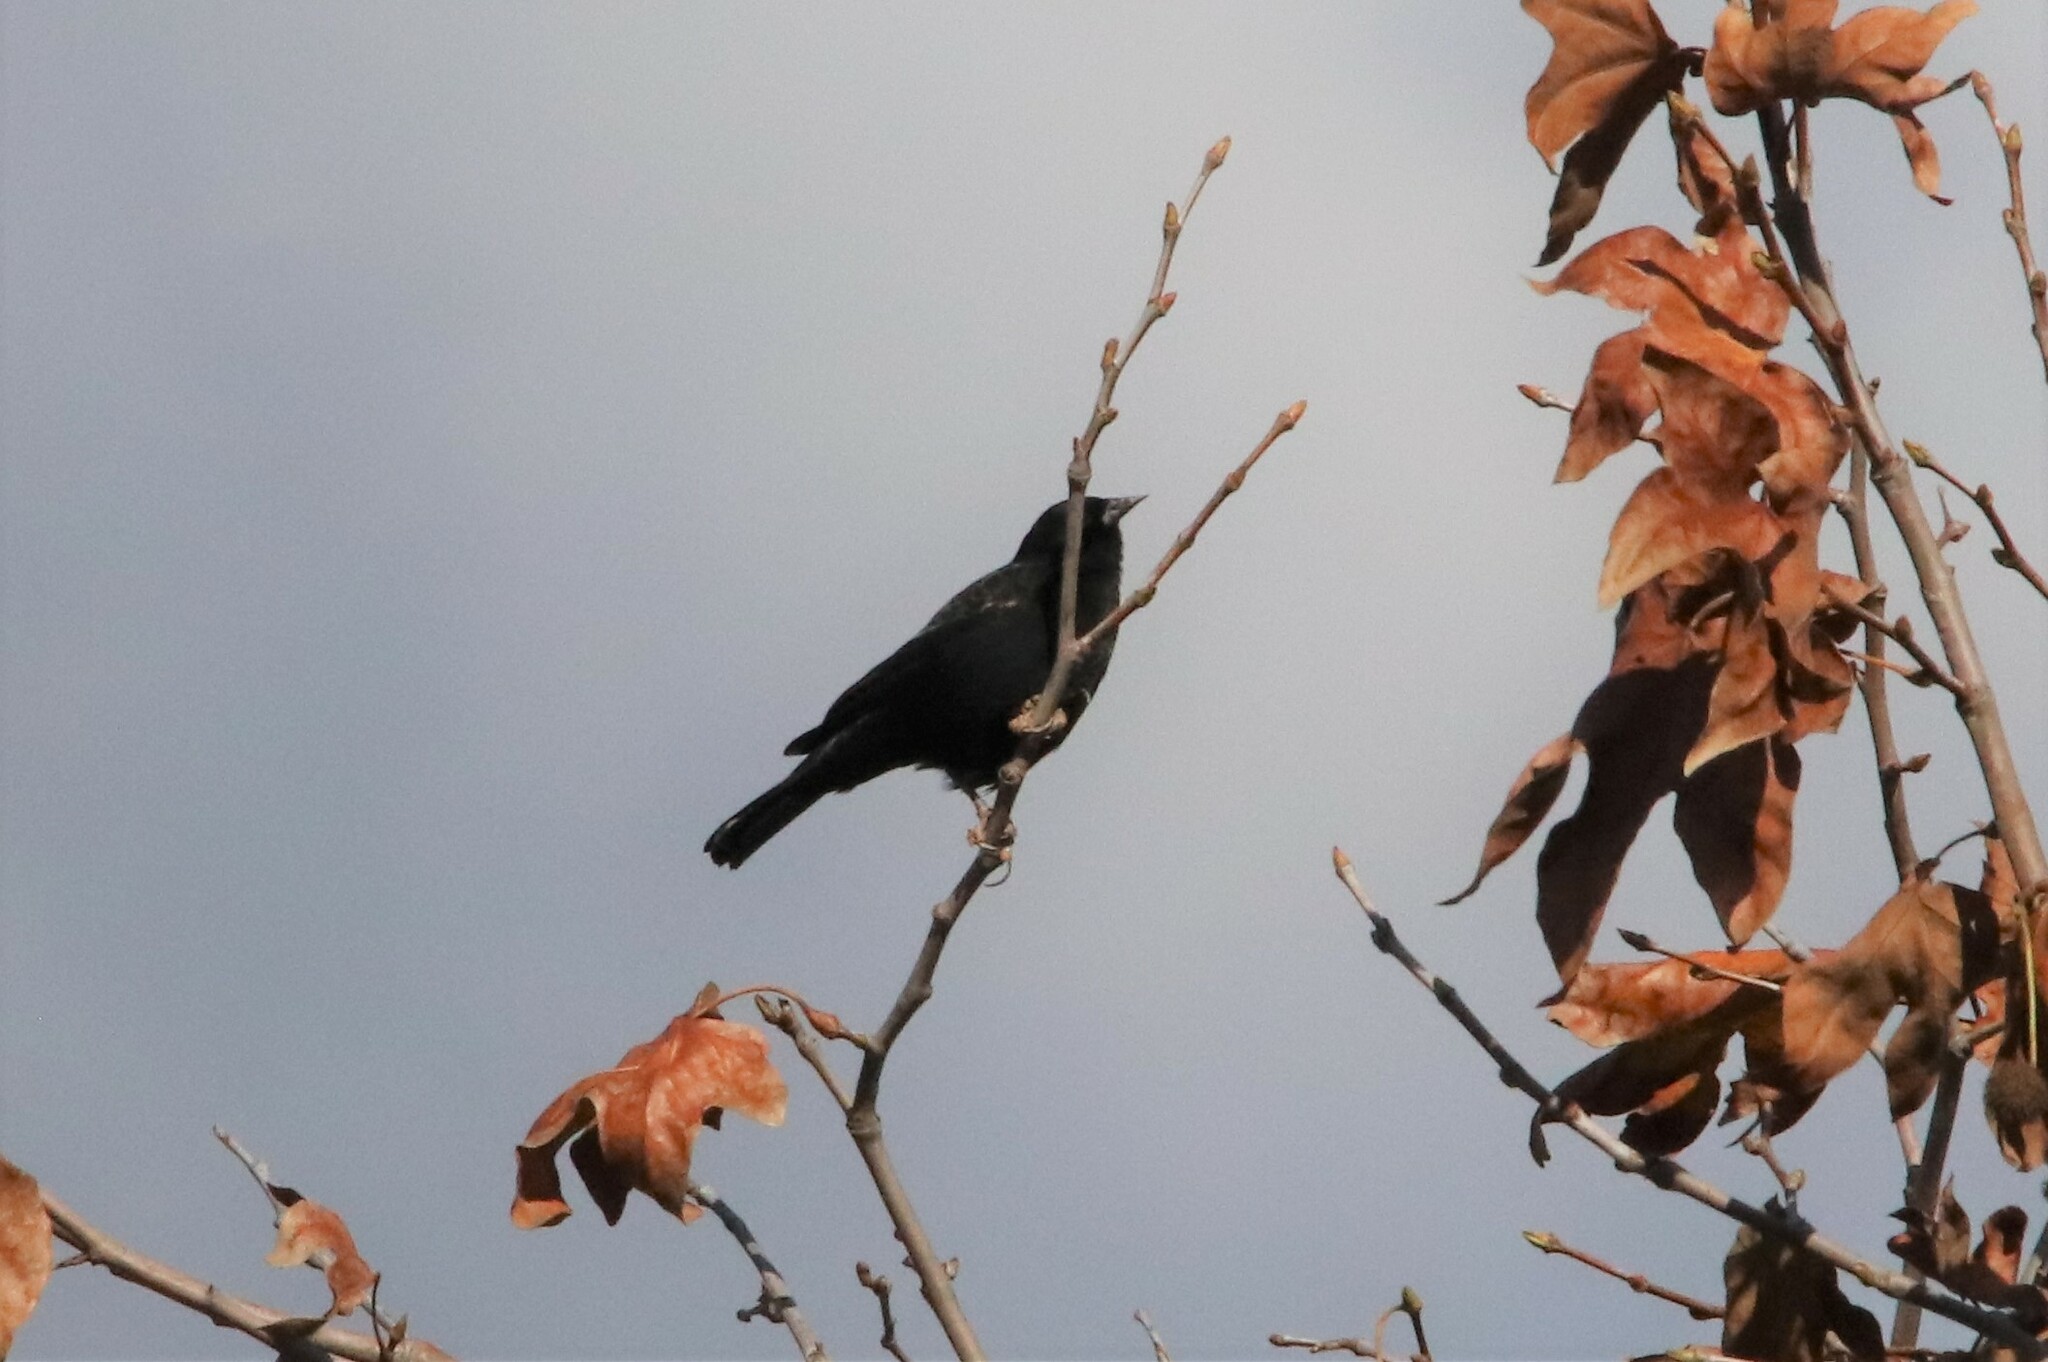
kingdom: Animalia
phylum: Chordata
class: Aves
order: Passeriformes
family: Icteridae
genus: Agelaius
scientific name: Agelaius tricolor
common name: Tricolored blackbird
